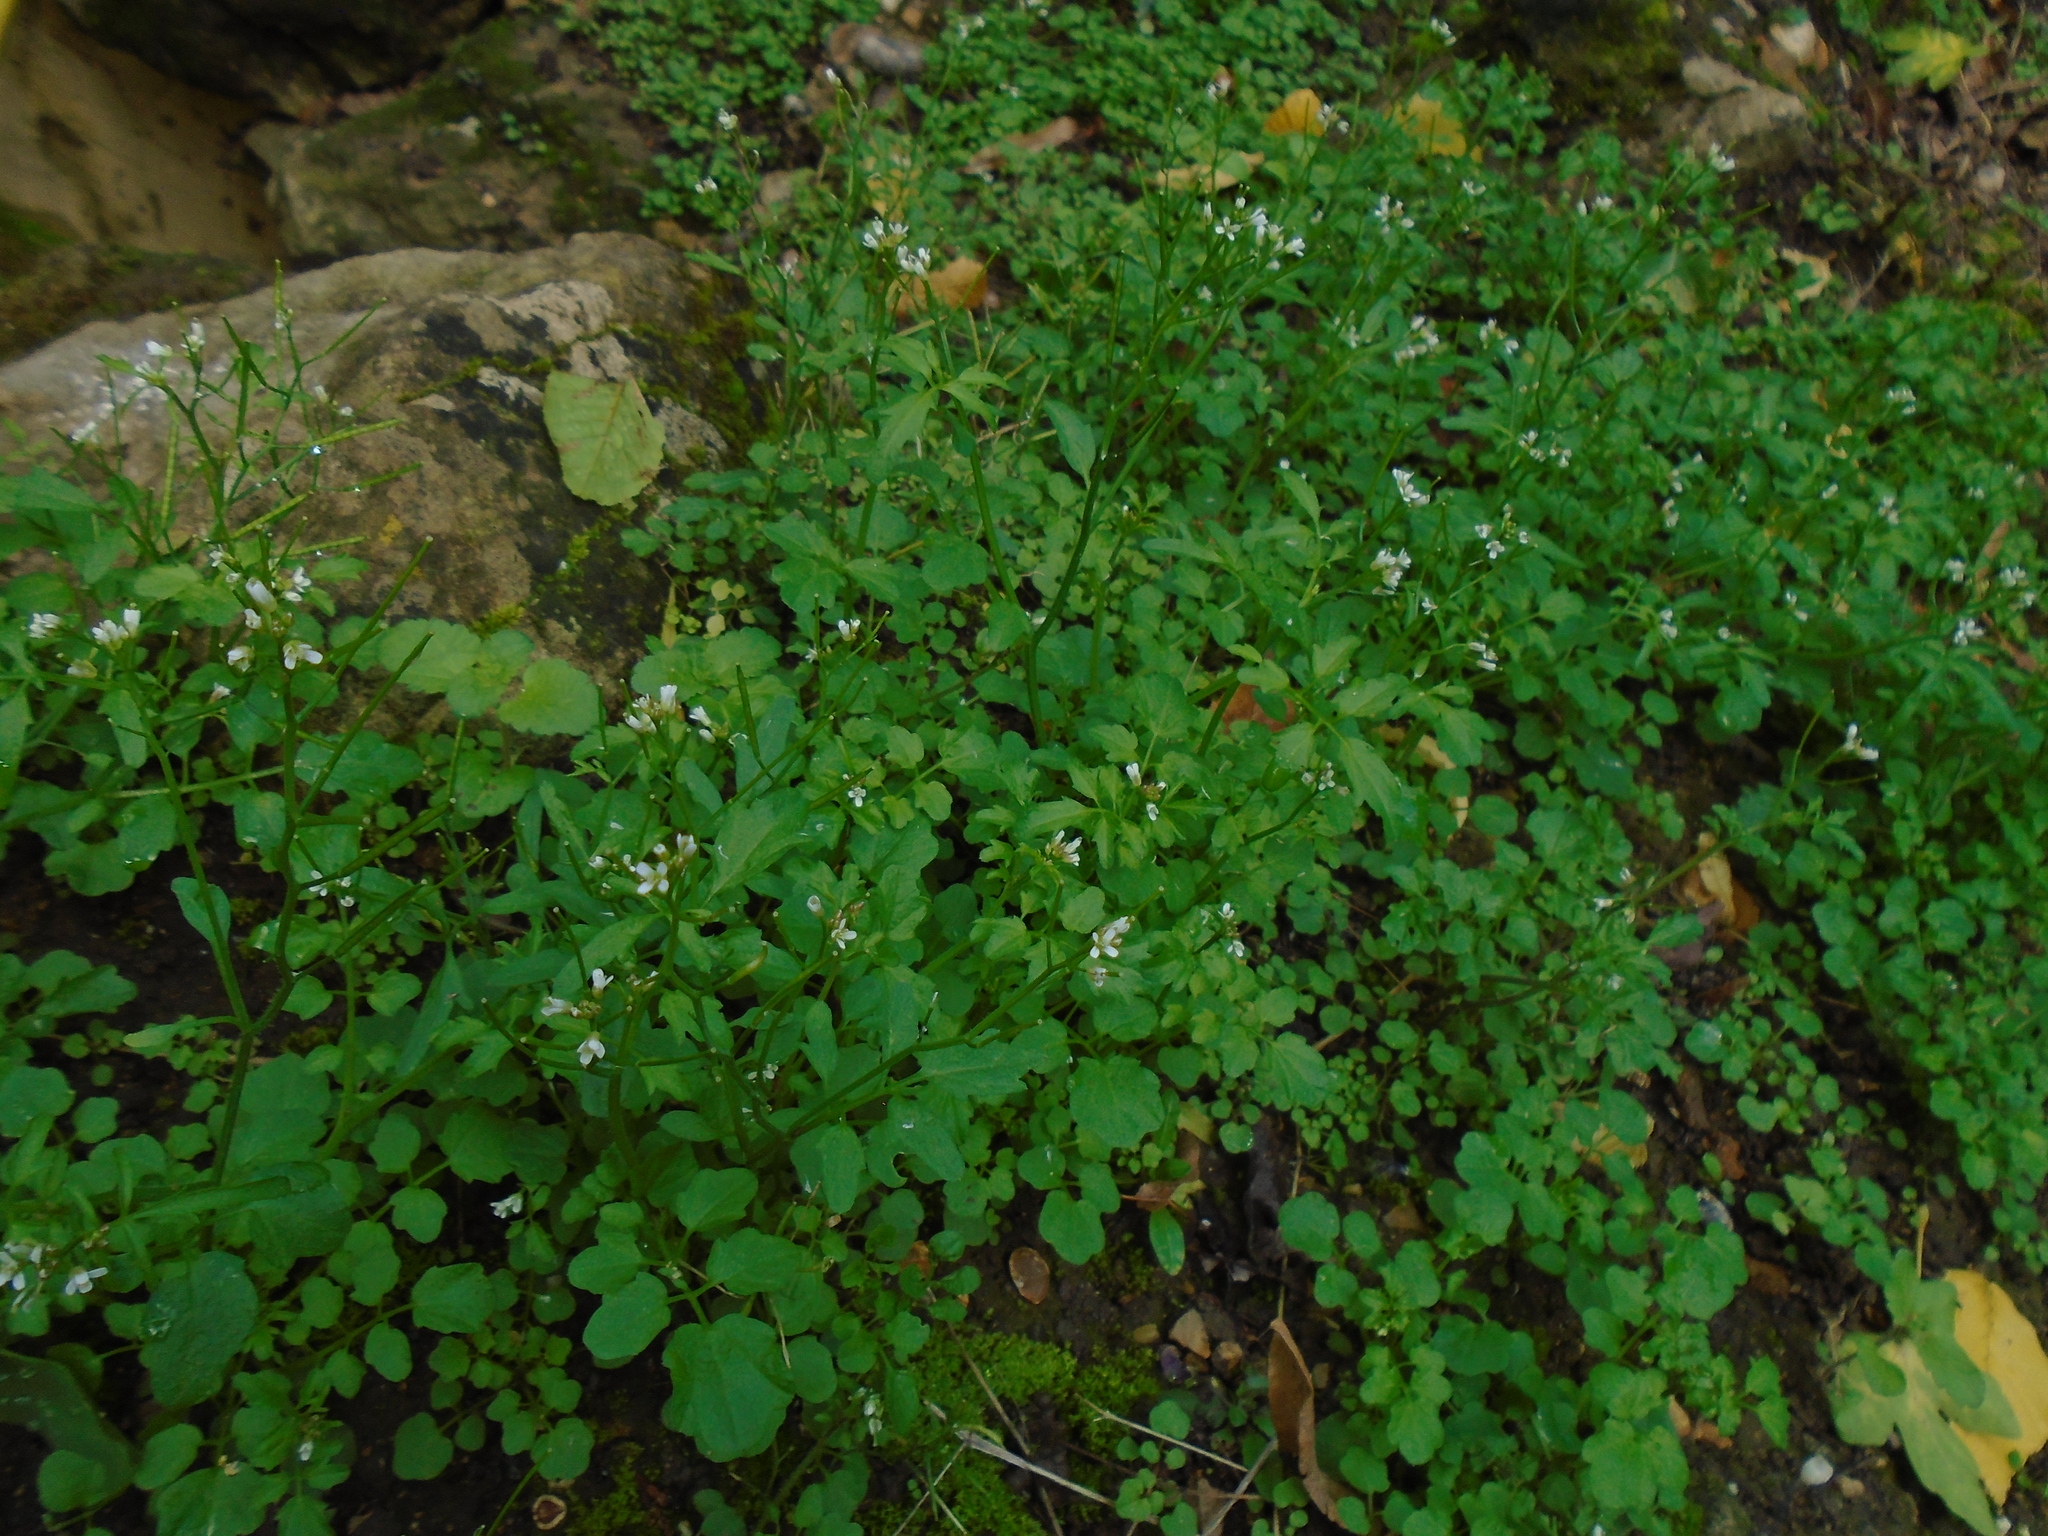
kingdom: Plantae
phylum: Tracheophyta
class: Magnoliopsida
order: Brassicales
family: Brassicaceae
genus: Cardamine
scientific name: Cardamine flexuosa
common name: Woodland bittercress
